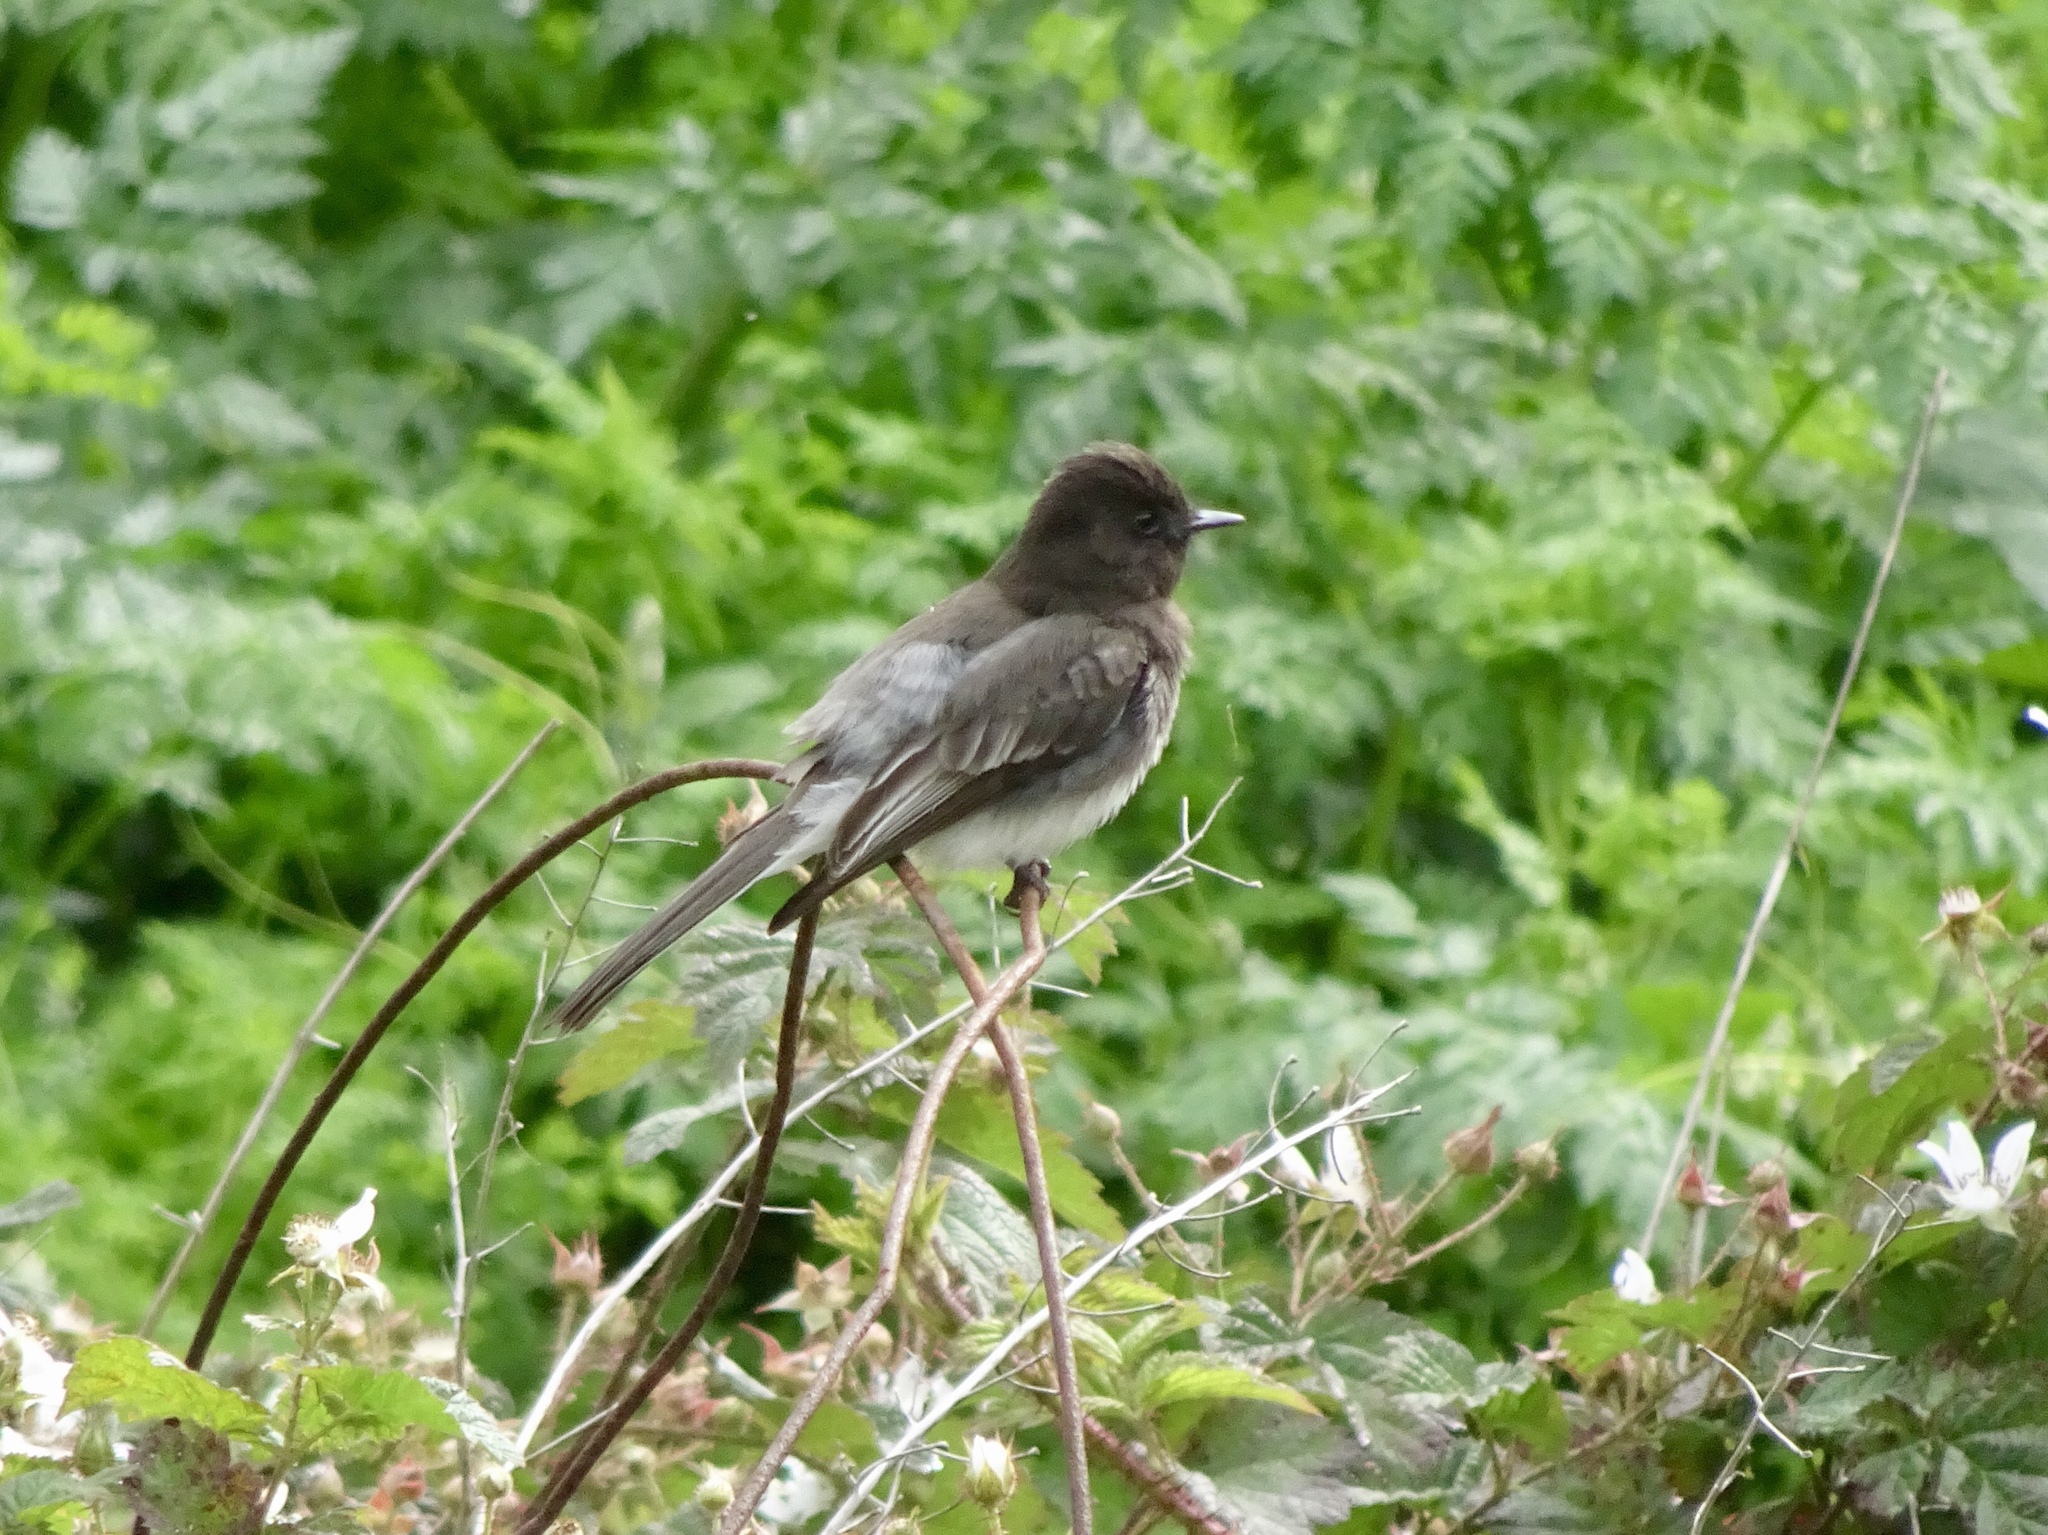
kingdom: Animalia
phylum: Chordata
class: Aves
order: Passeriformes
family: Tyrannidae
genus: Sayornis
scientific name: Sayornis nigricans
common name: Black phoebe
